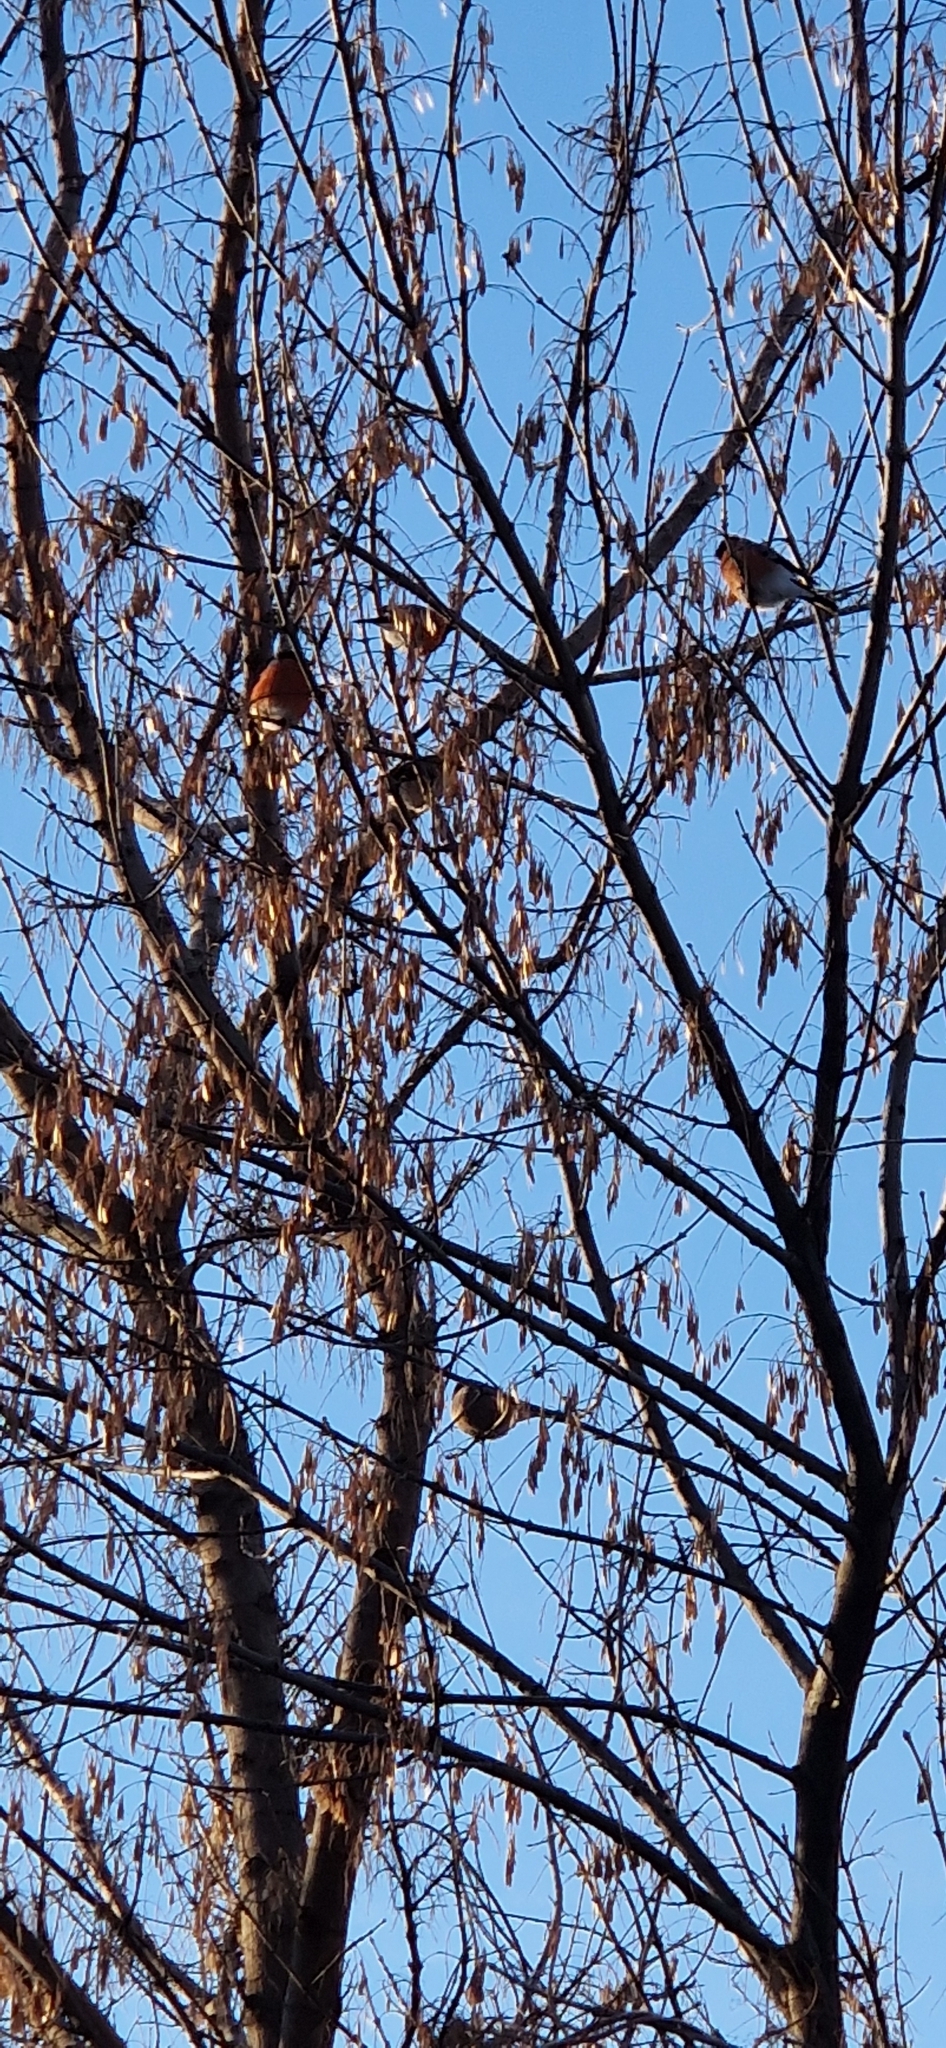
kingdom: Animalia
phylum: Chordata
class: Aves
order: Passeriformes
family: Fringillidae
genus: Pyrrhula
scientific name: Pyrrhula pyrrhula
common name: Eurasian bullfinch
